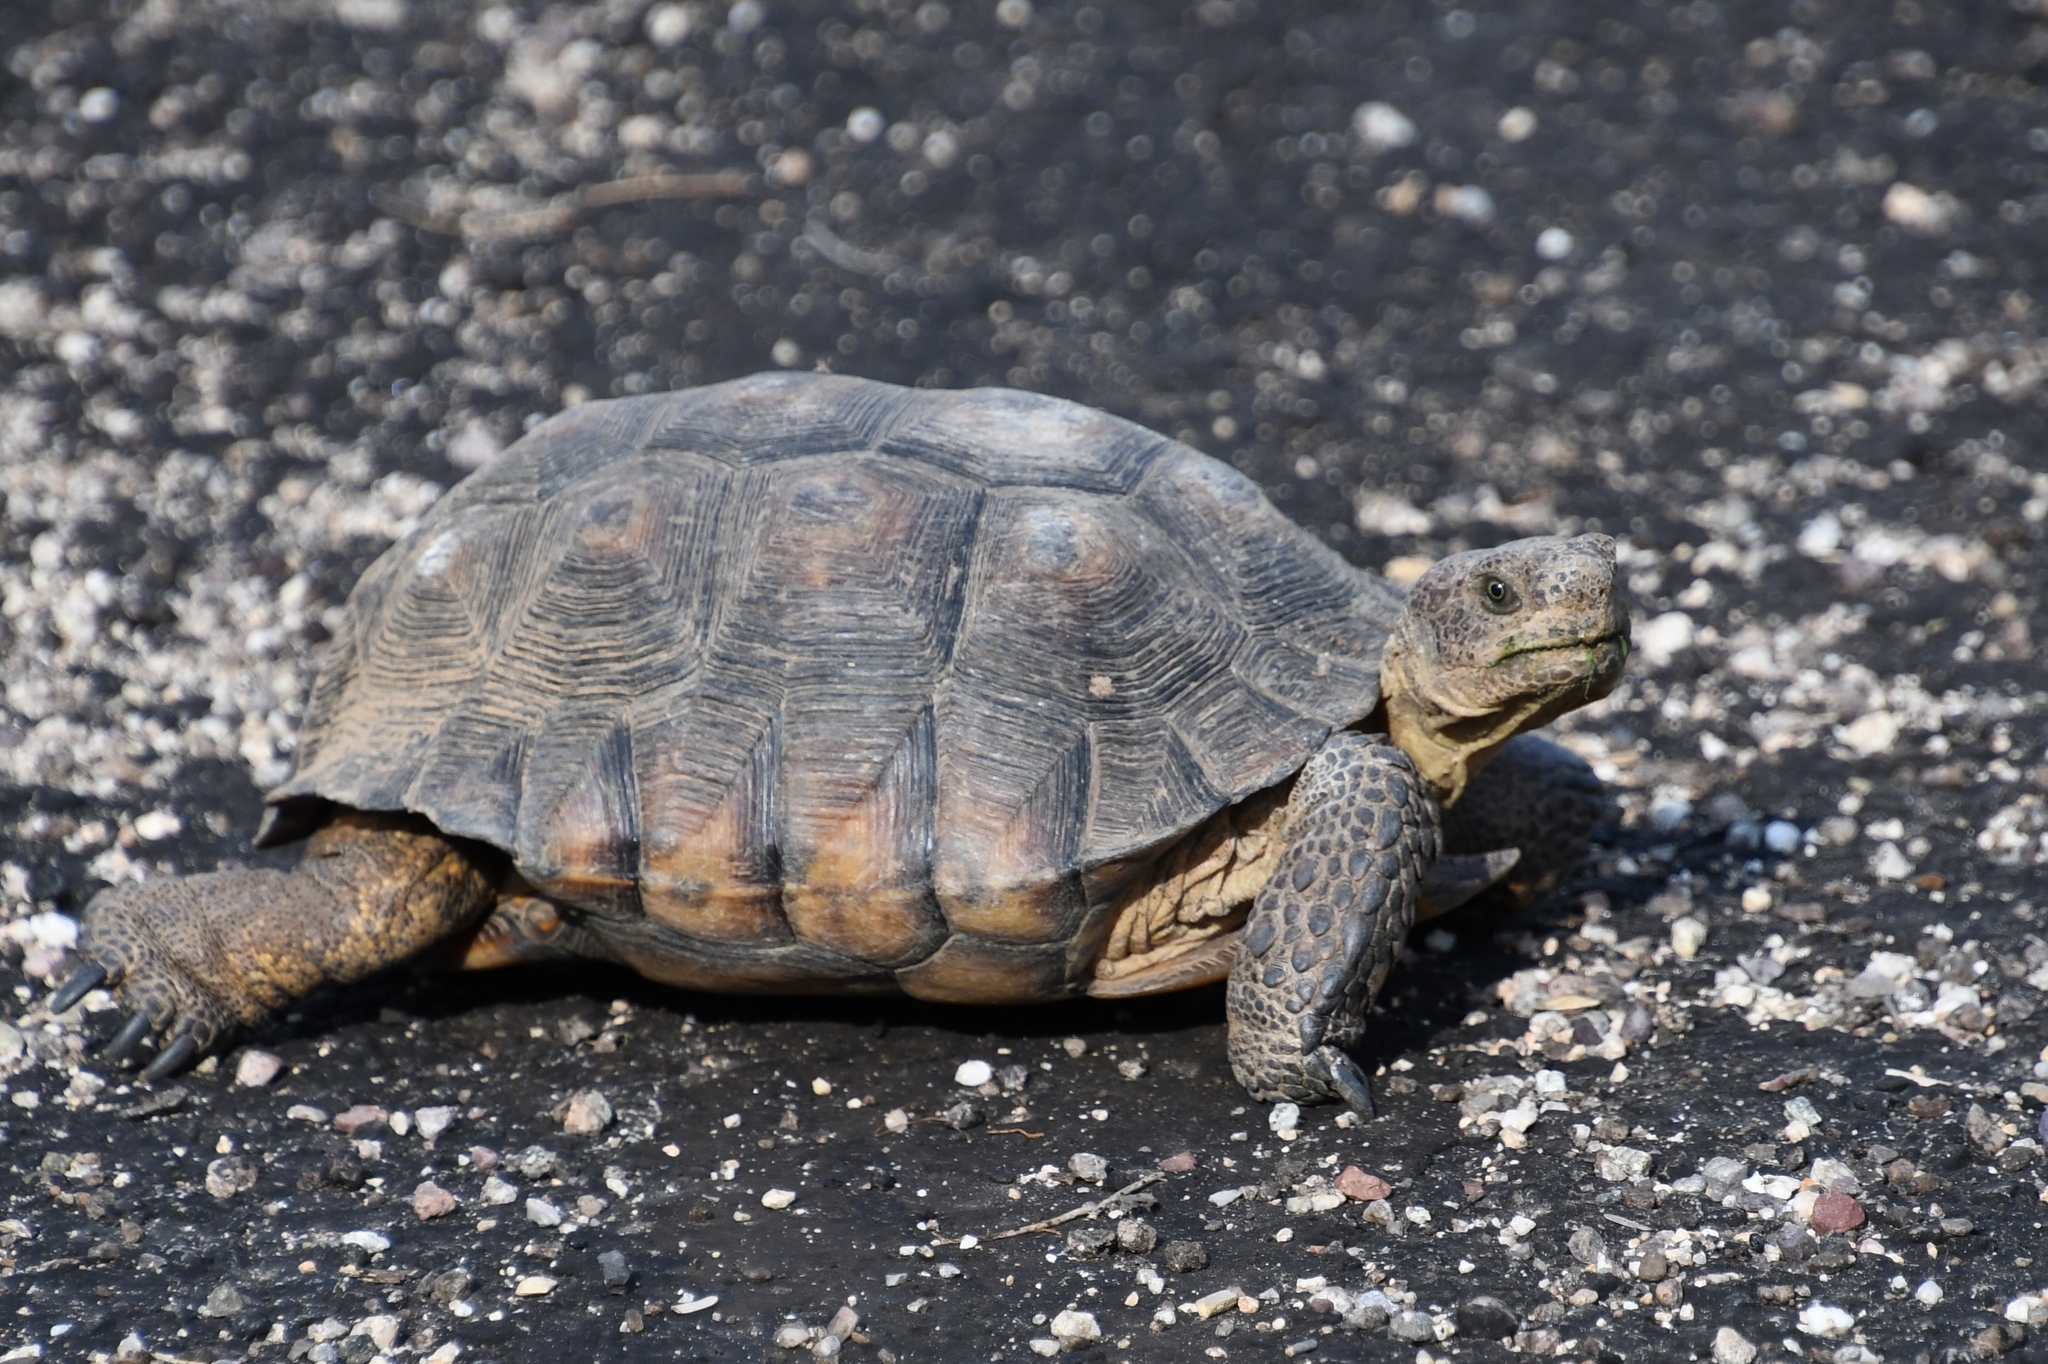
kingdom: Animalia
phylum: Chordata
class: Testudines
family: Testudinidae
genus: Gopherus
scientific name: Gopherus morafkai
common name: Sonoran desert tortoise
